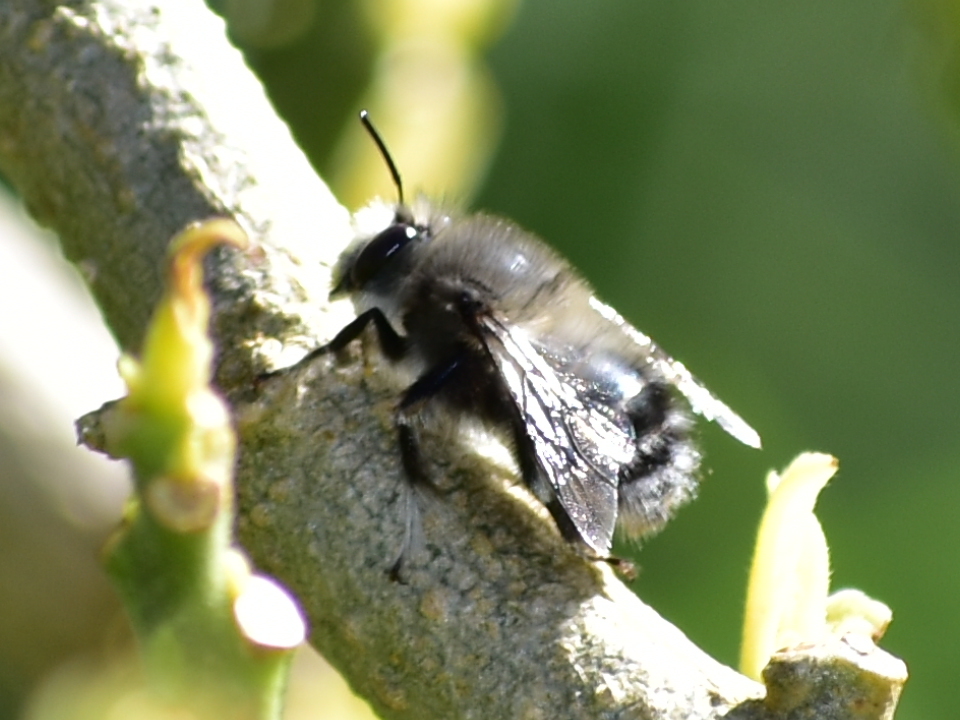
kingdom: Animalia
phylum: Arthropoda
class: Insecta
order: Hymenoptera
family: Apidae
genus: Anthophora
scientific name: Anthophora pacifica
